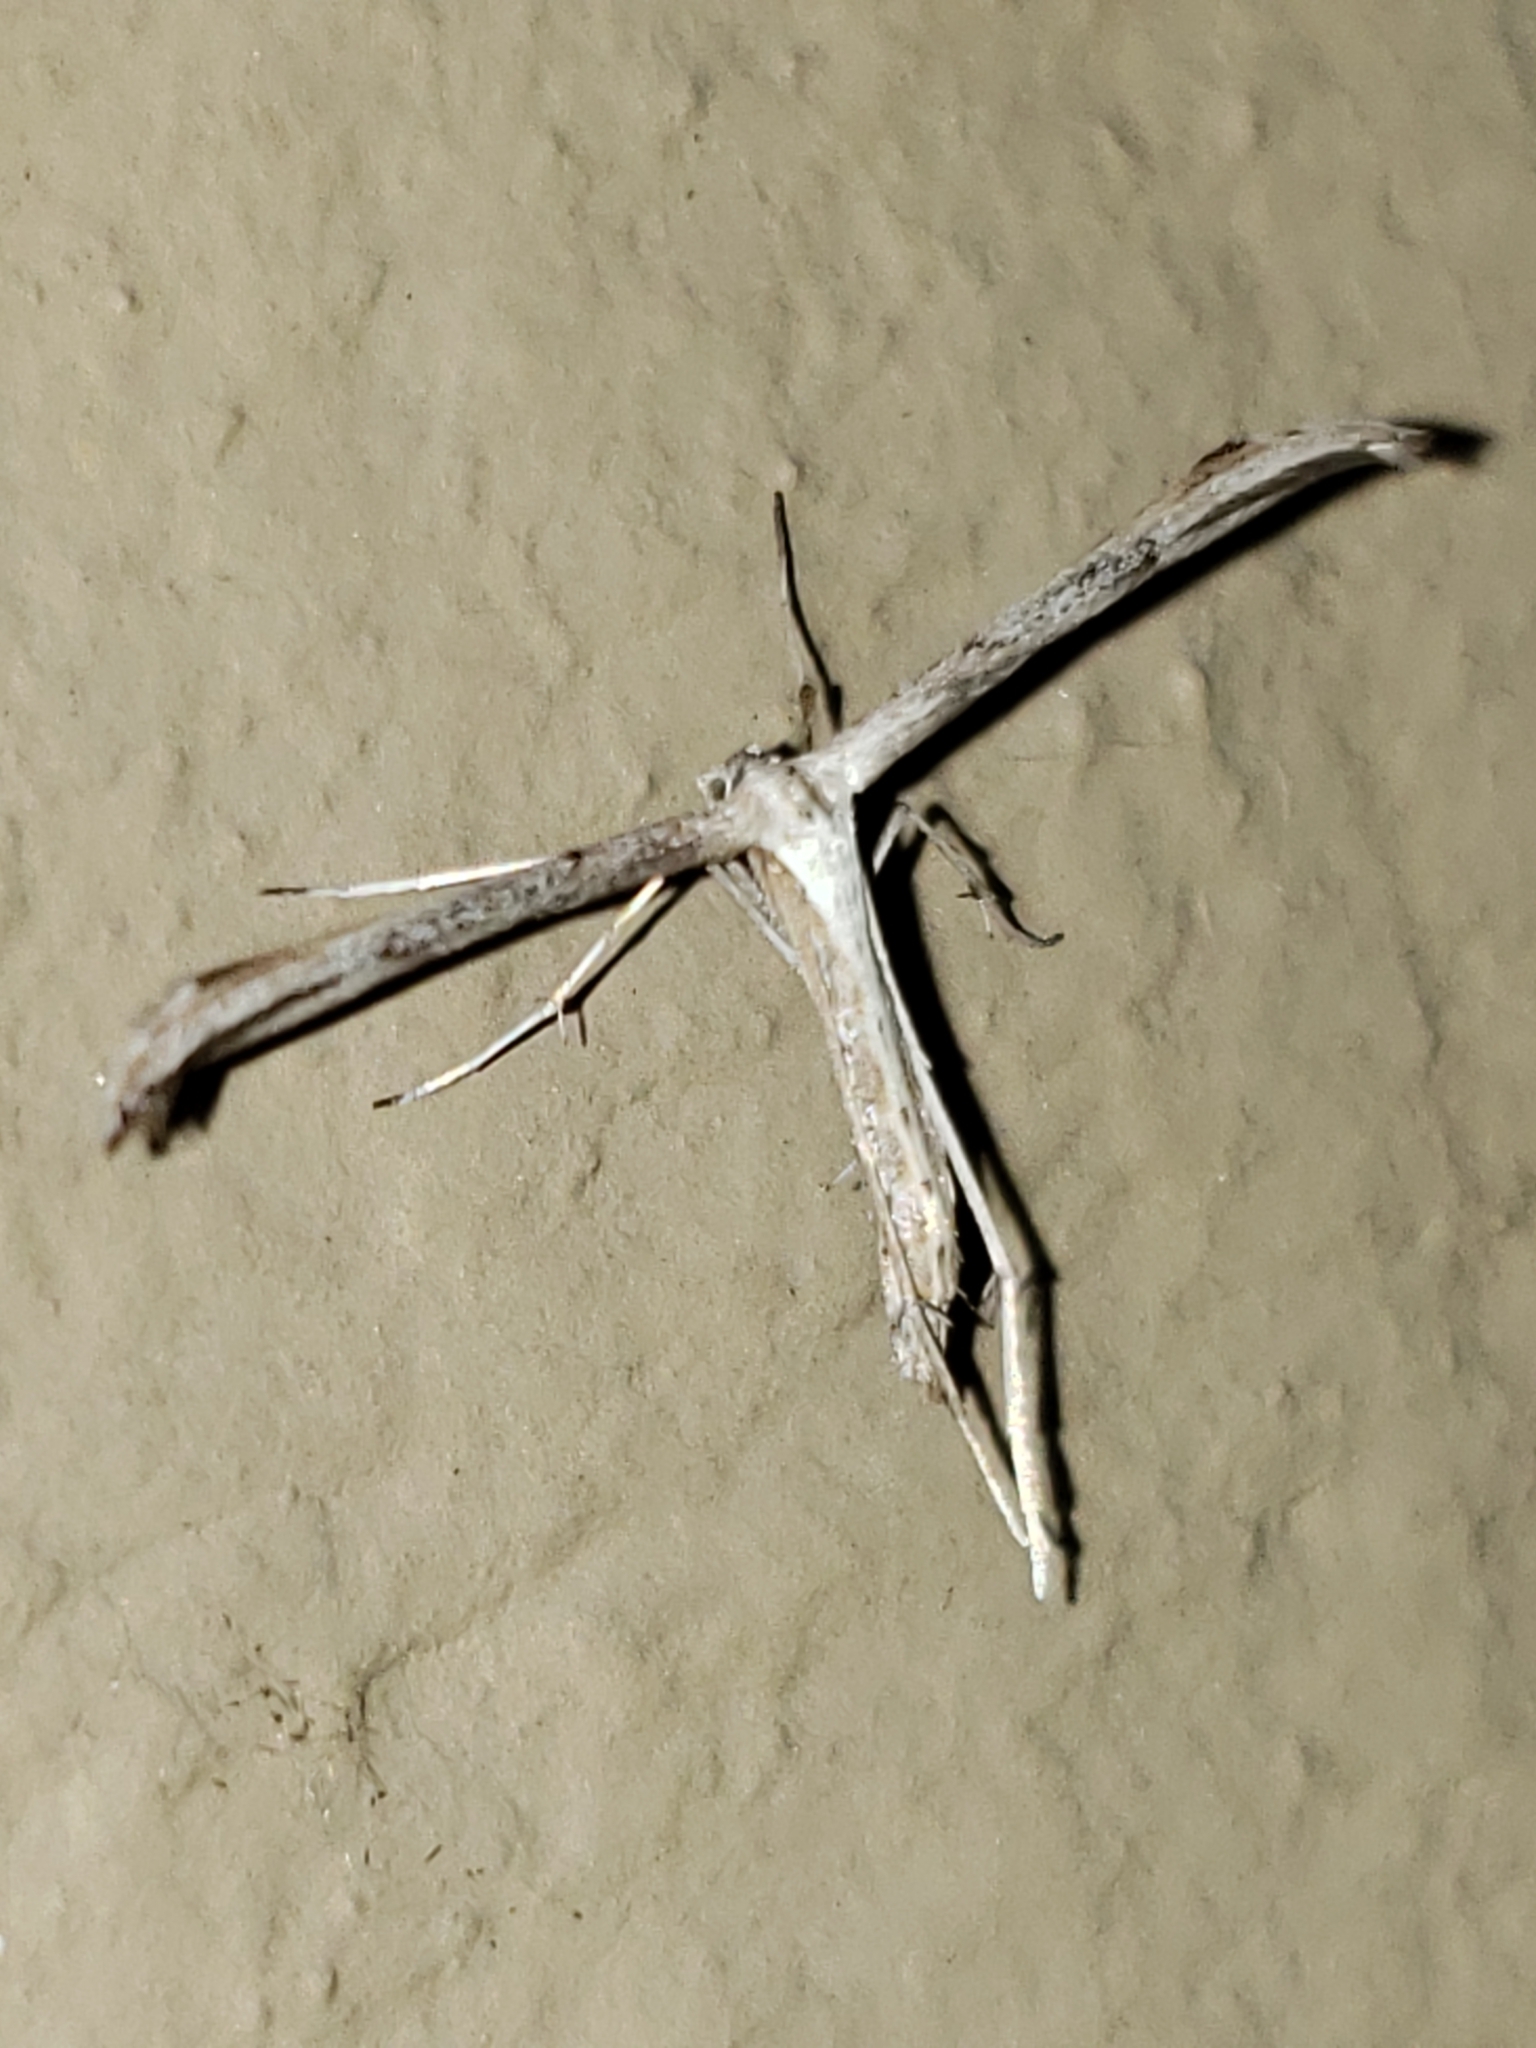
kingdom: Animalia
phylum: Arthropoda
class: Insecta
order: Lepidoptera
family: Pterophoridae
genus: Emmelina
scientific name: Emmelina monodactyla
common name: Common plume
